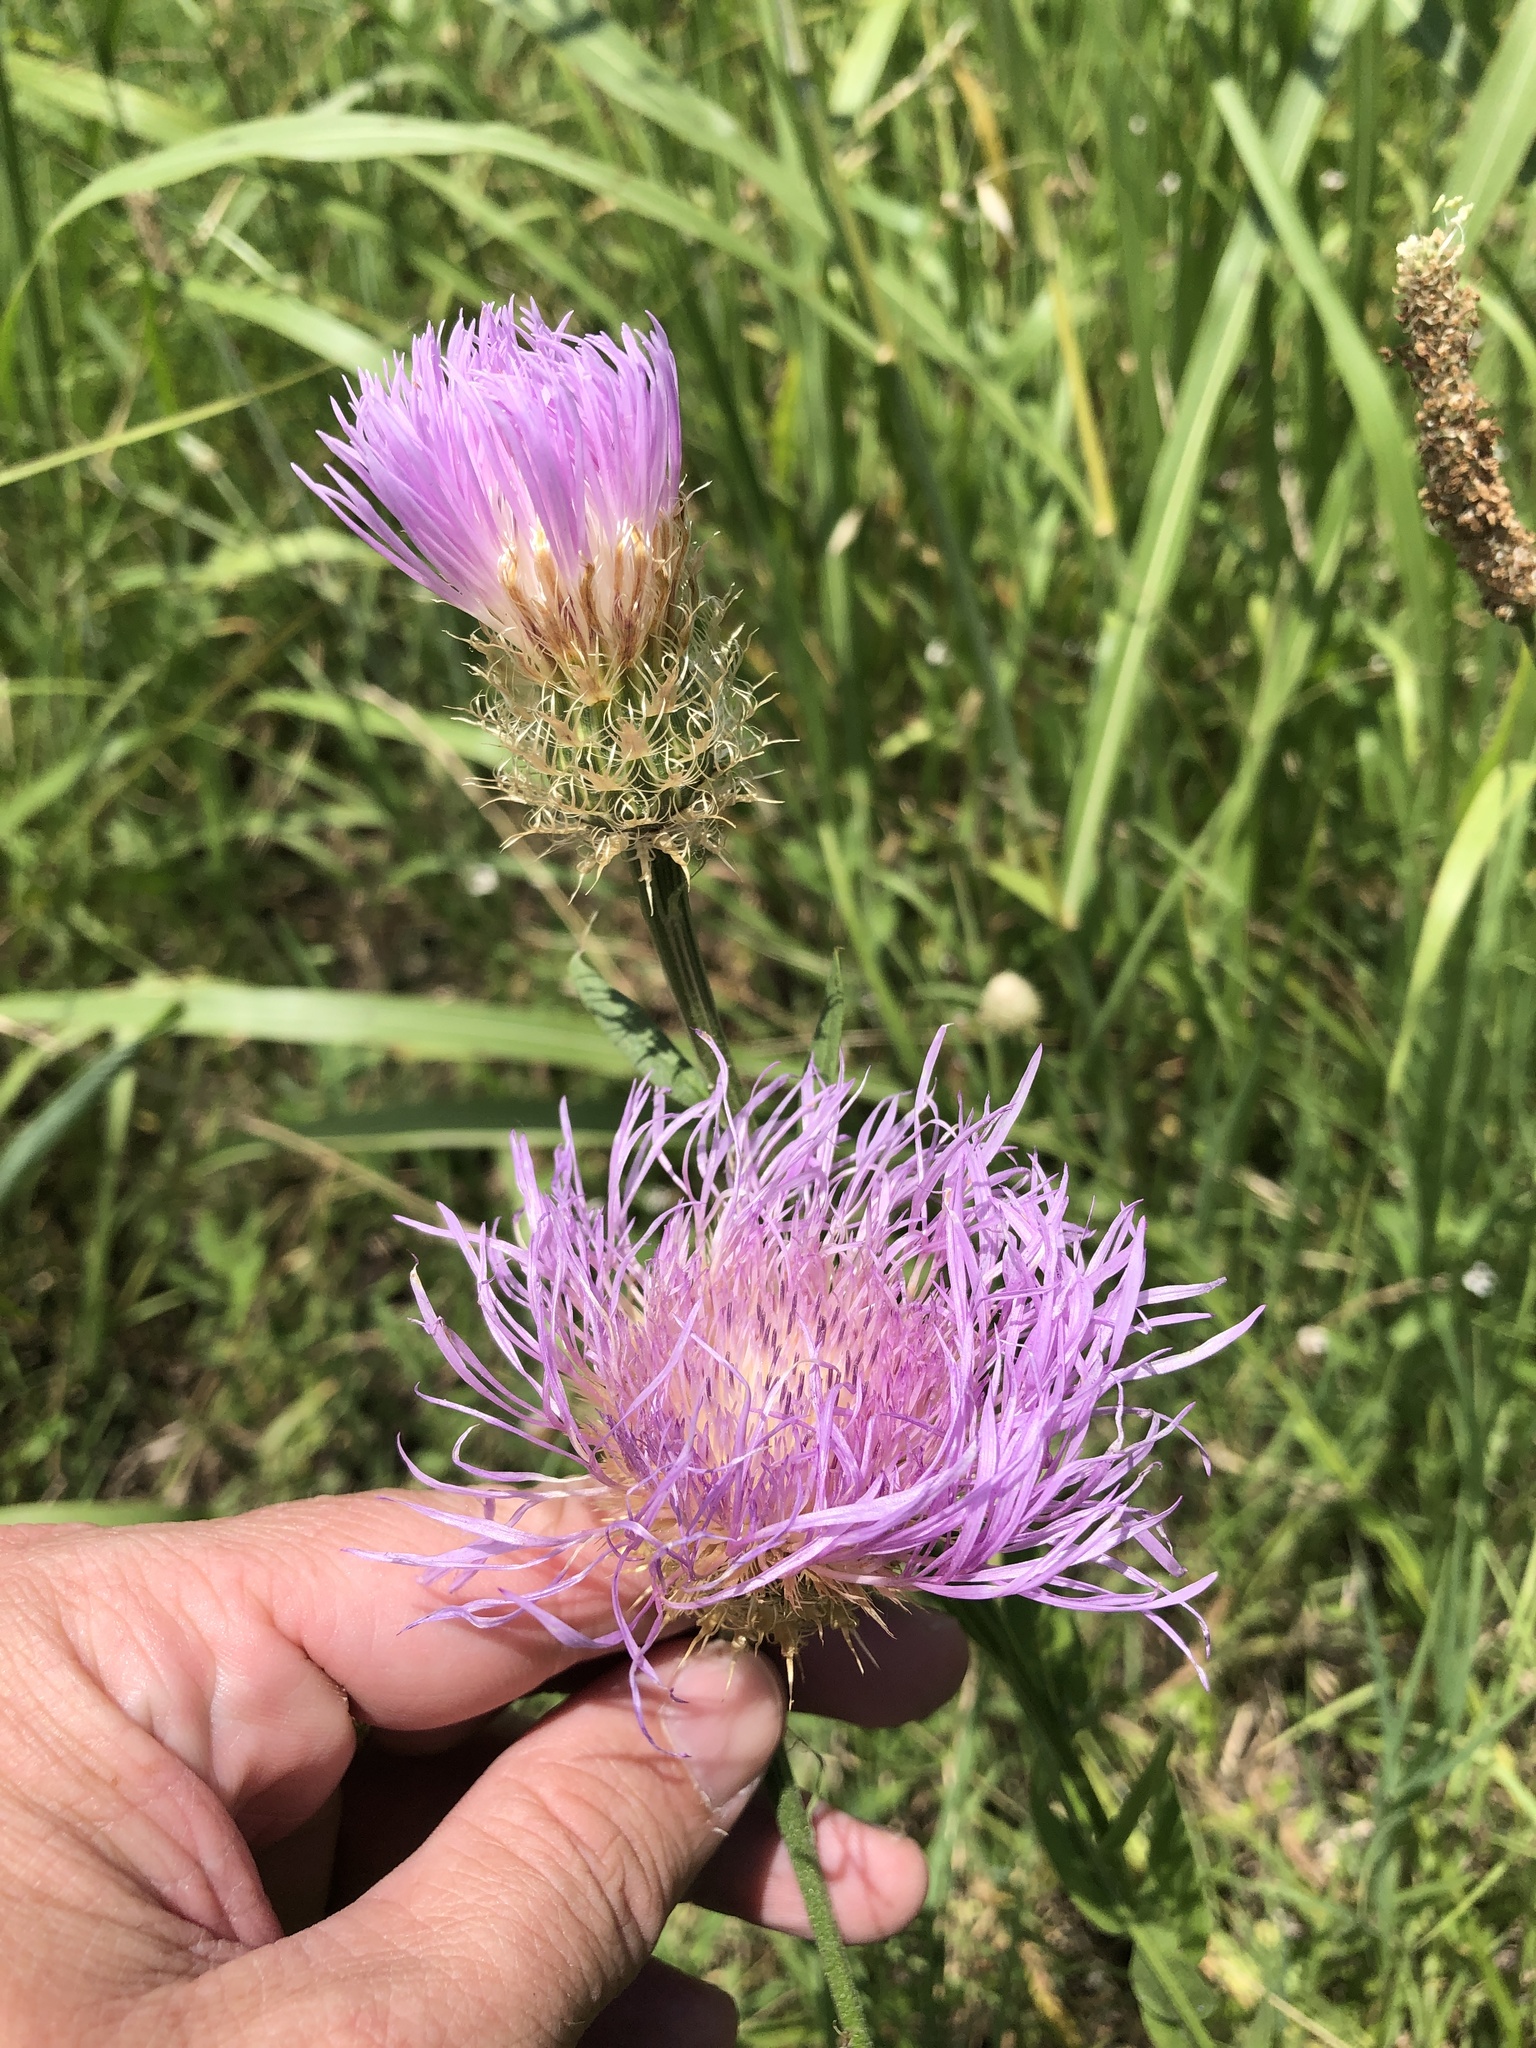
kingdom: Plantae
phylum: Tracheophyta
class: Magnoliopsida
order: Asterales
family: Asteraceae
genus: Plectocephalus
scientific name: Plectocephalus americanus
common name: American basket-flower
